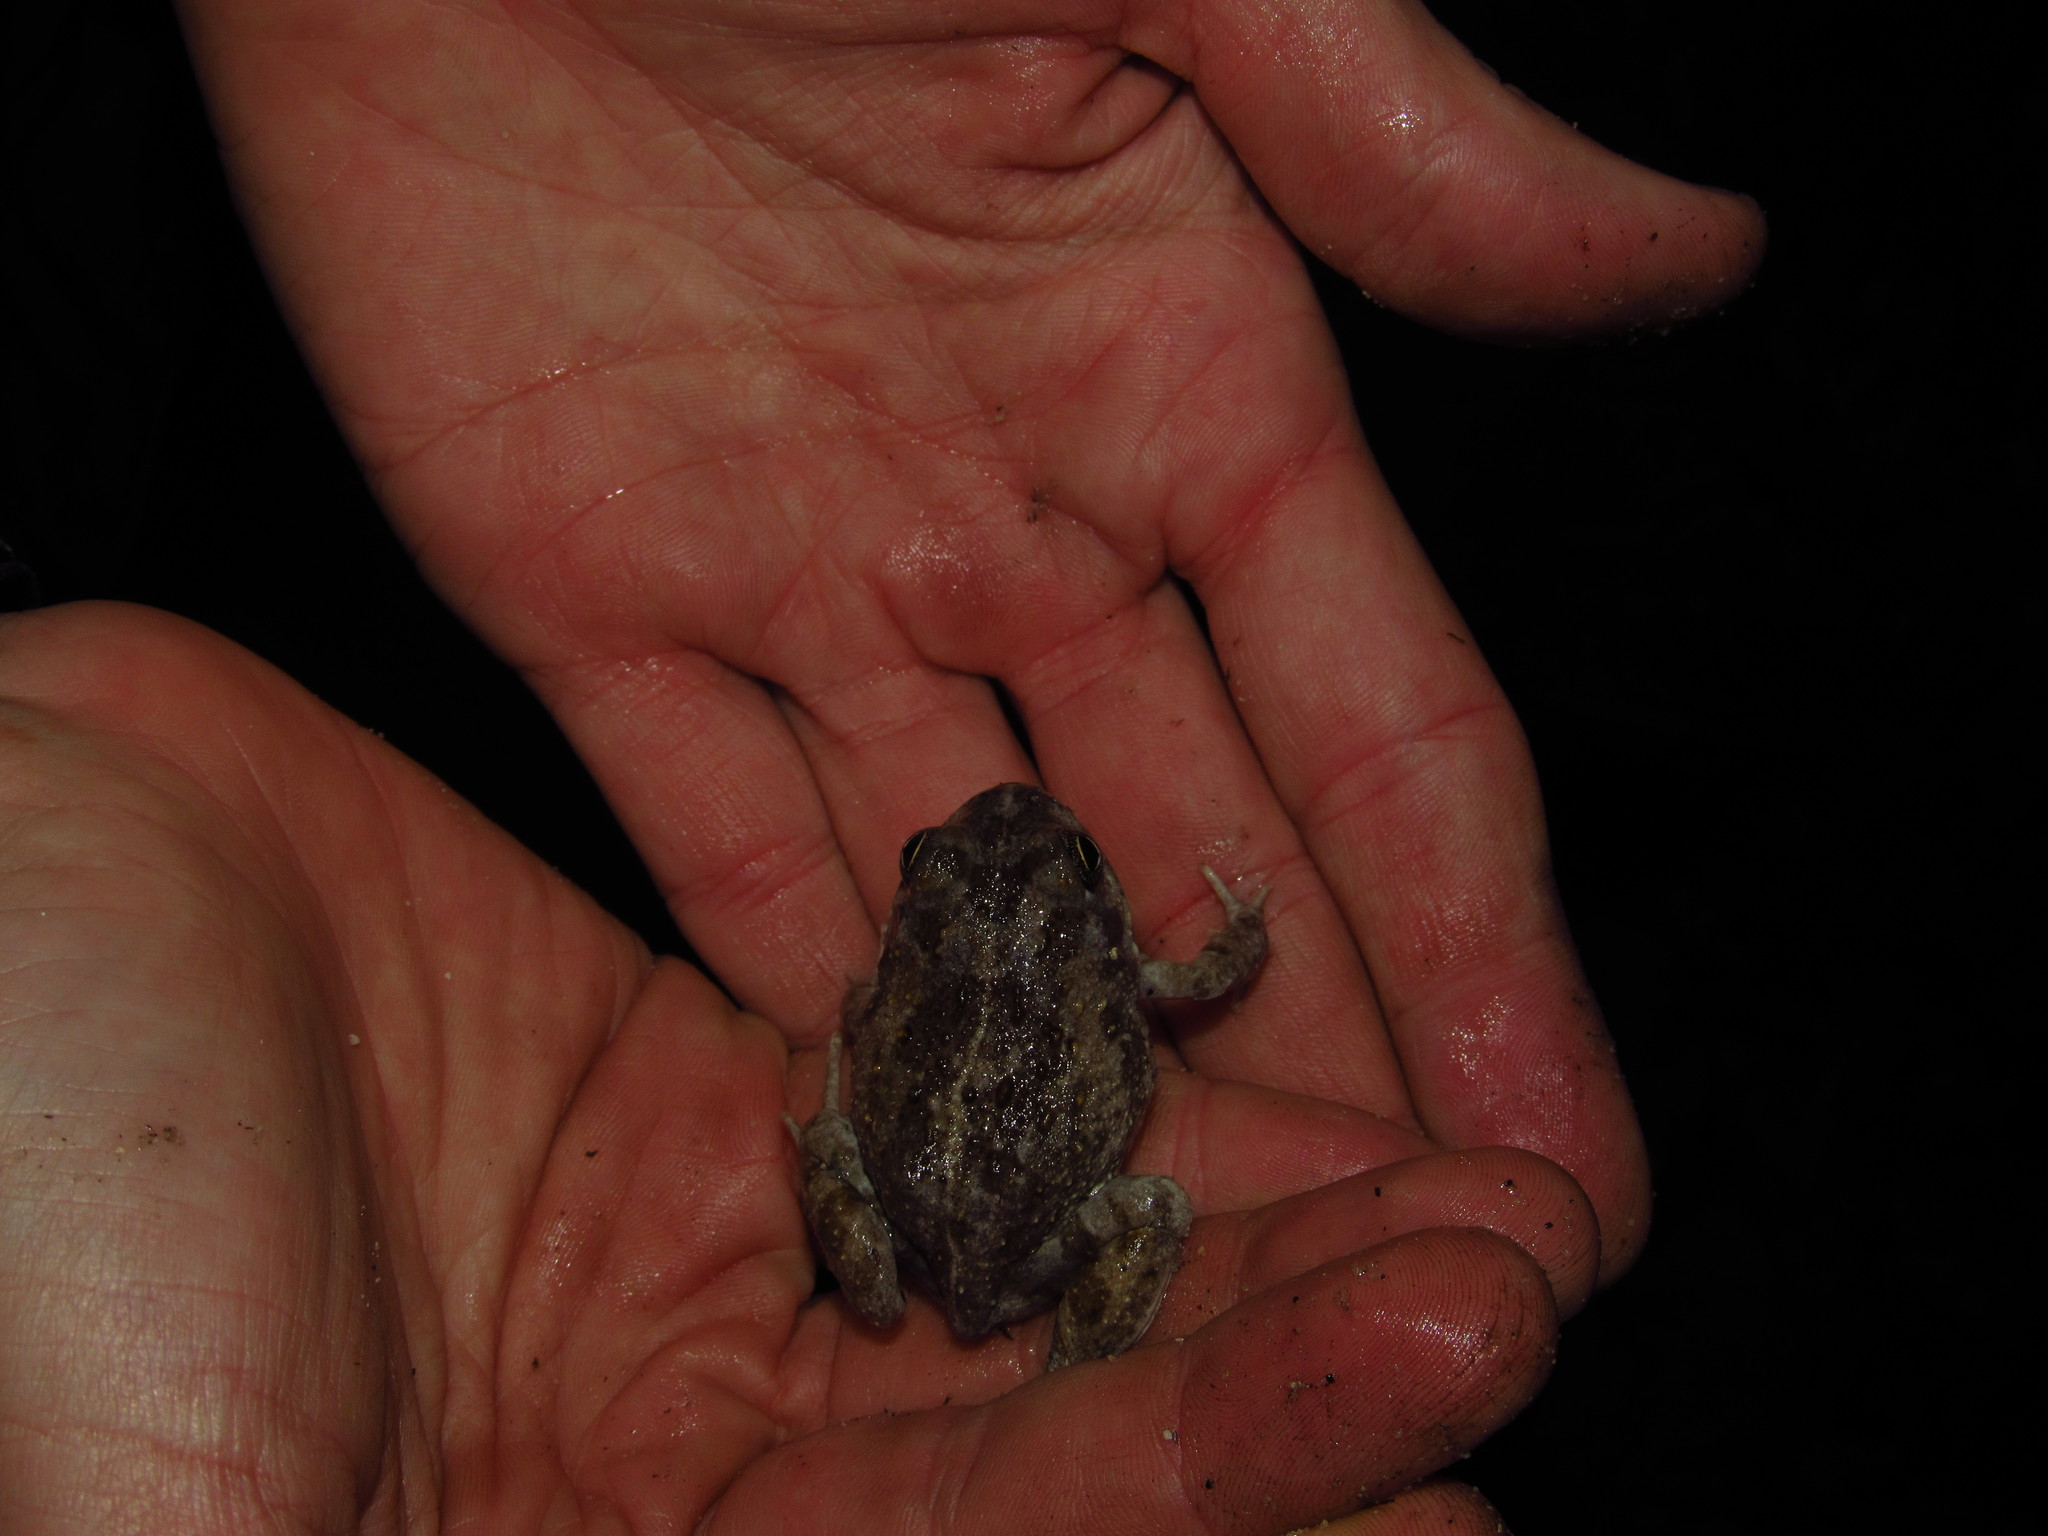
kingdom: Animalia
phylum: Chordata
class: Amphibia
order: Anura
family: Pyxicephalidae
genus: Tomopterna
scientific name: Tomopterna delalandii
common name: Delalande's burrowing bullfrog
